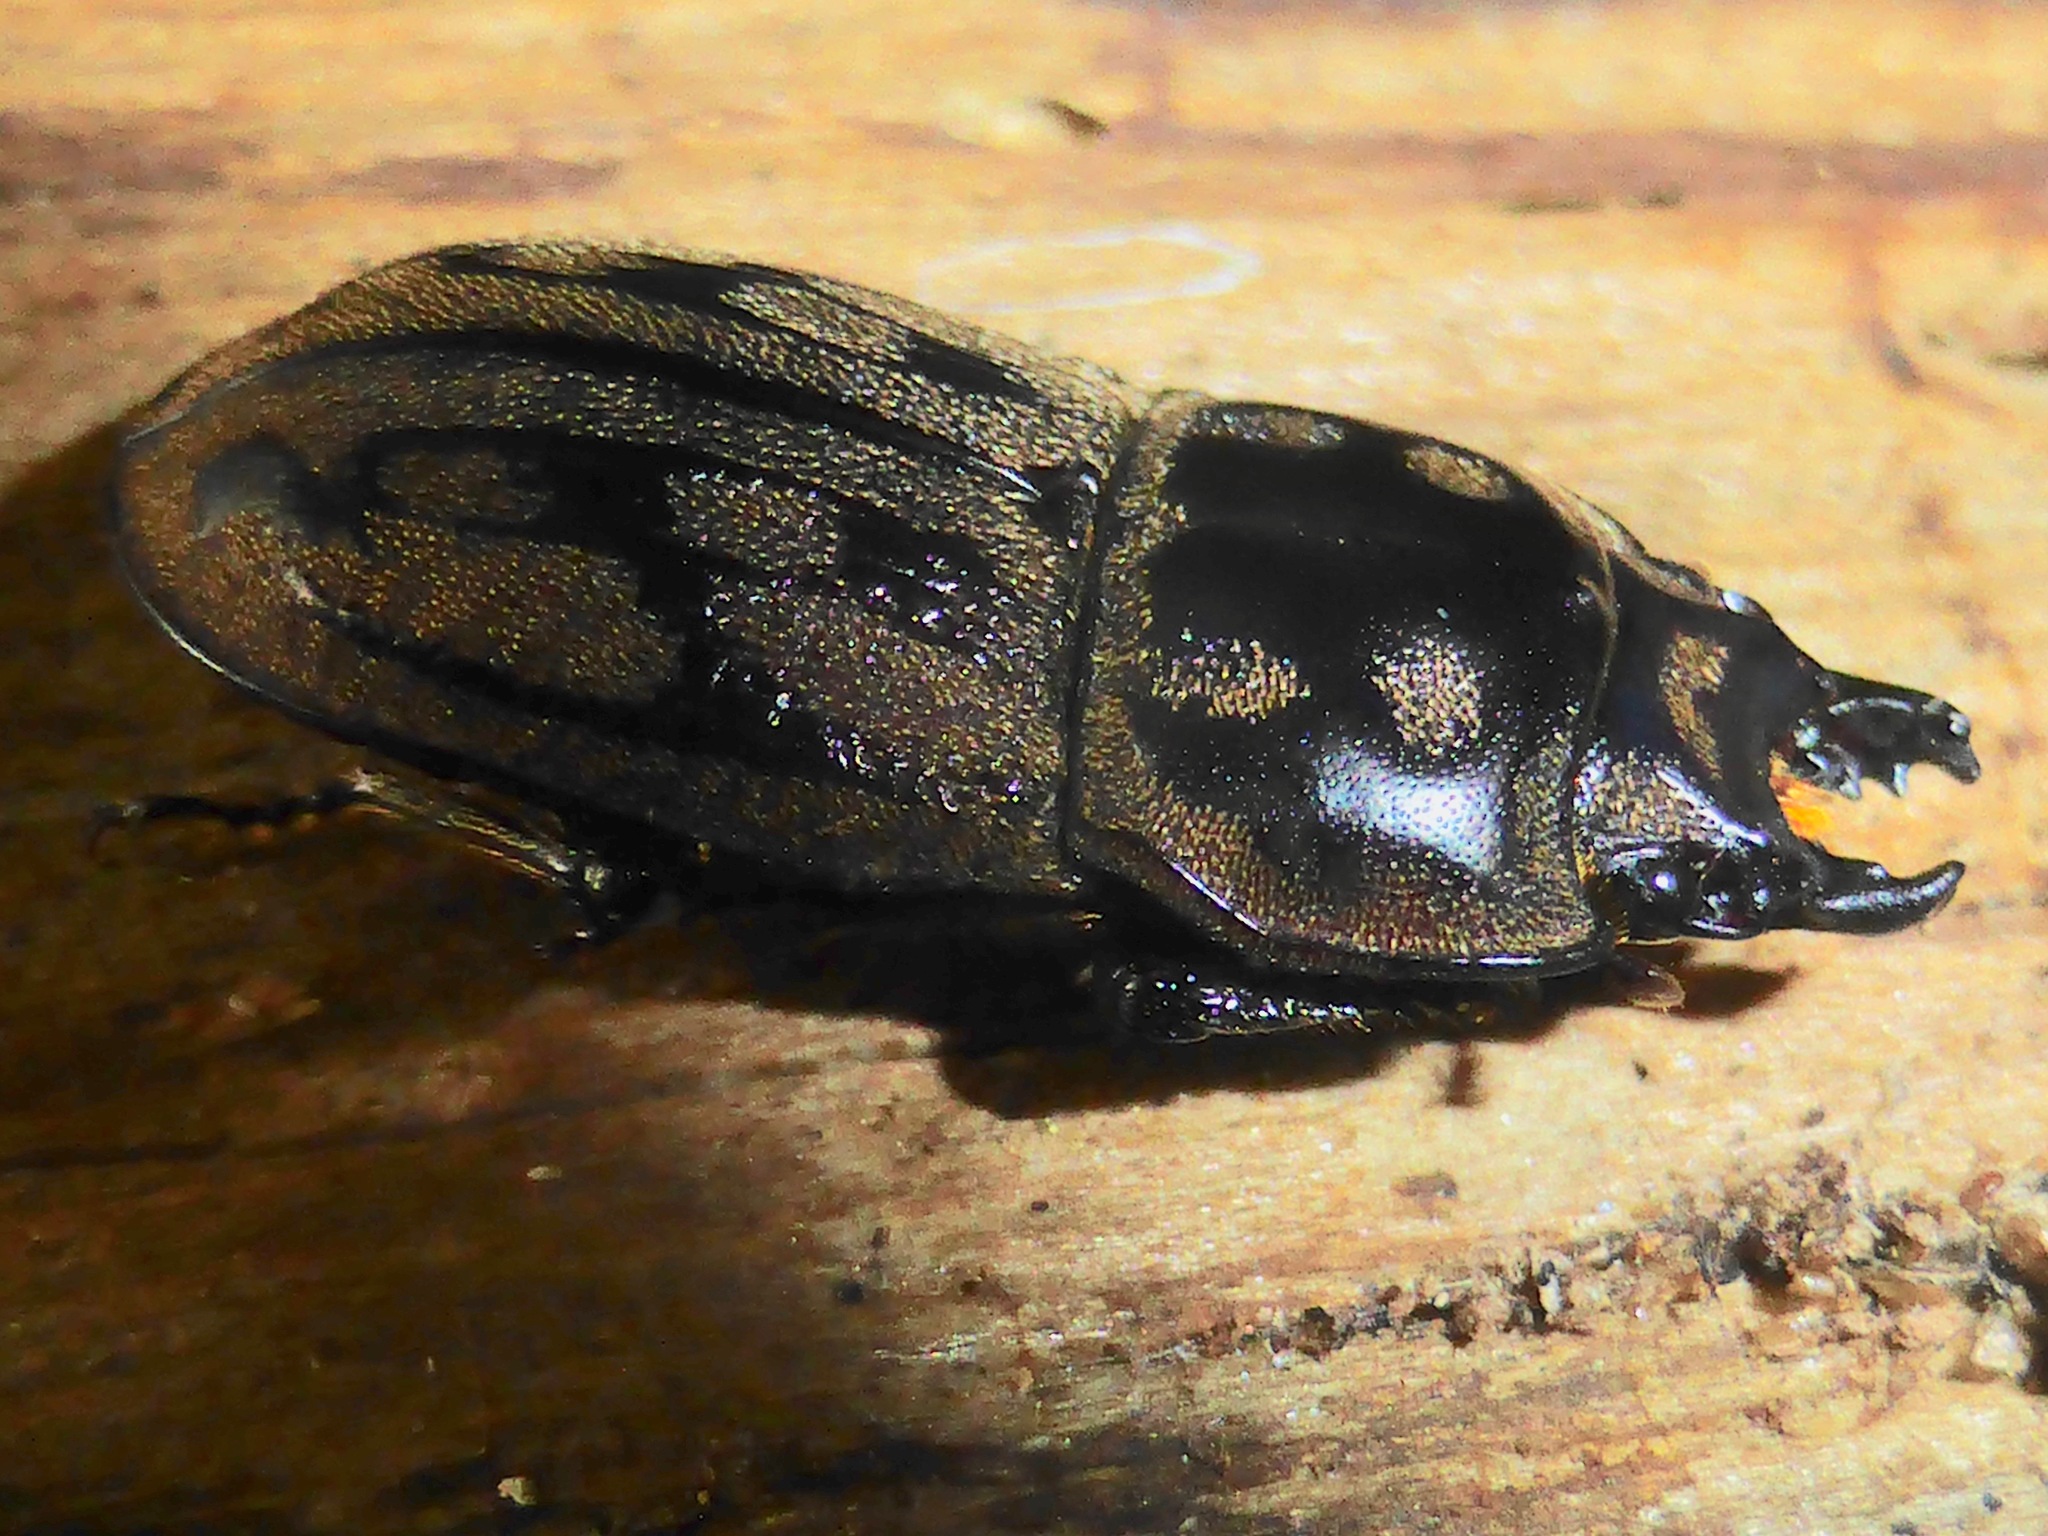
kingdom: Animalia
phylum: Arthropoda
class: Insecta
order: Coleoptera
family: Lucanidae
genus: Paralissotes
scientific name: Paralissotes reticulatus
